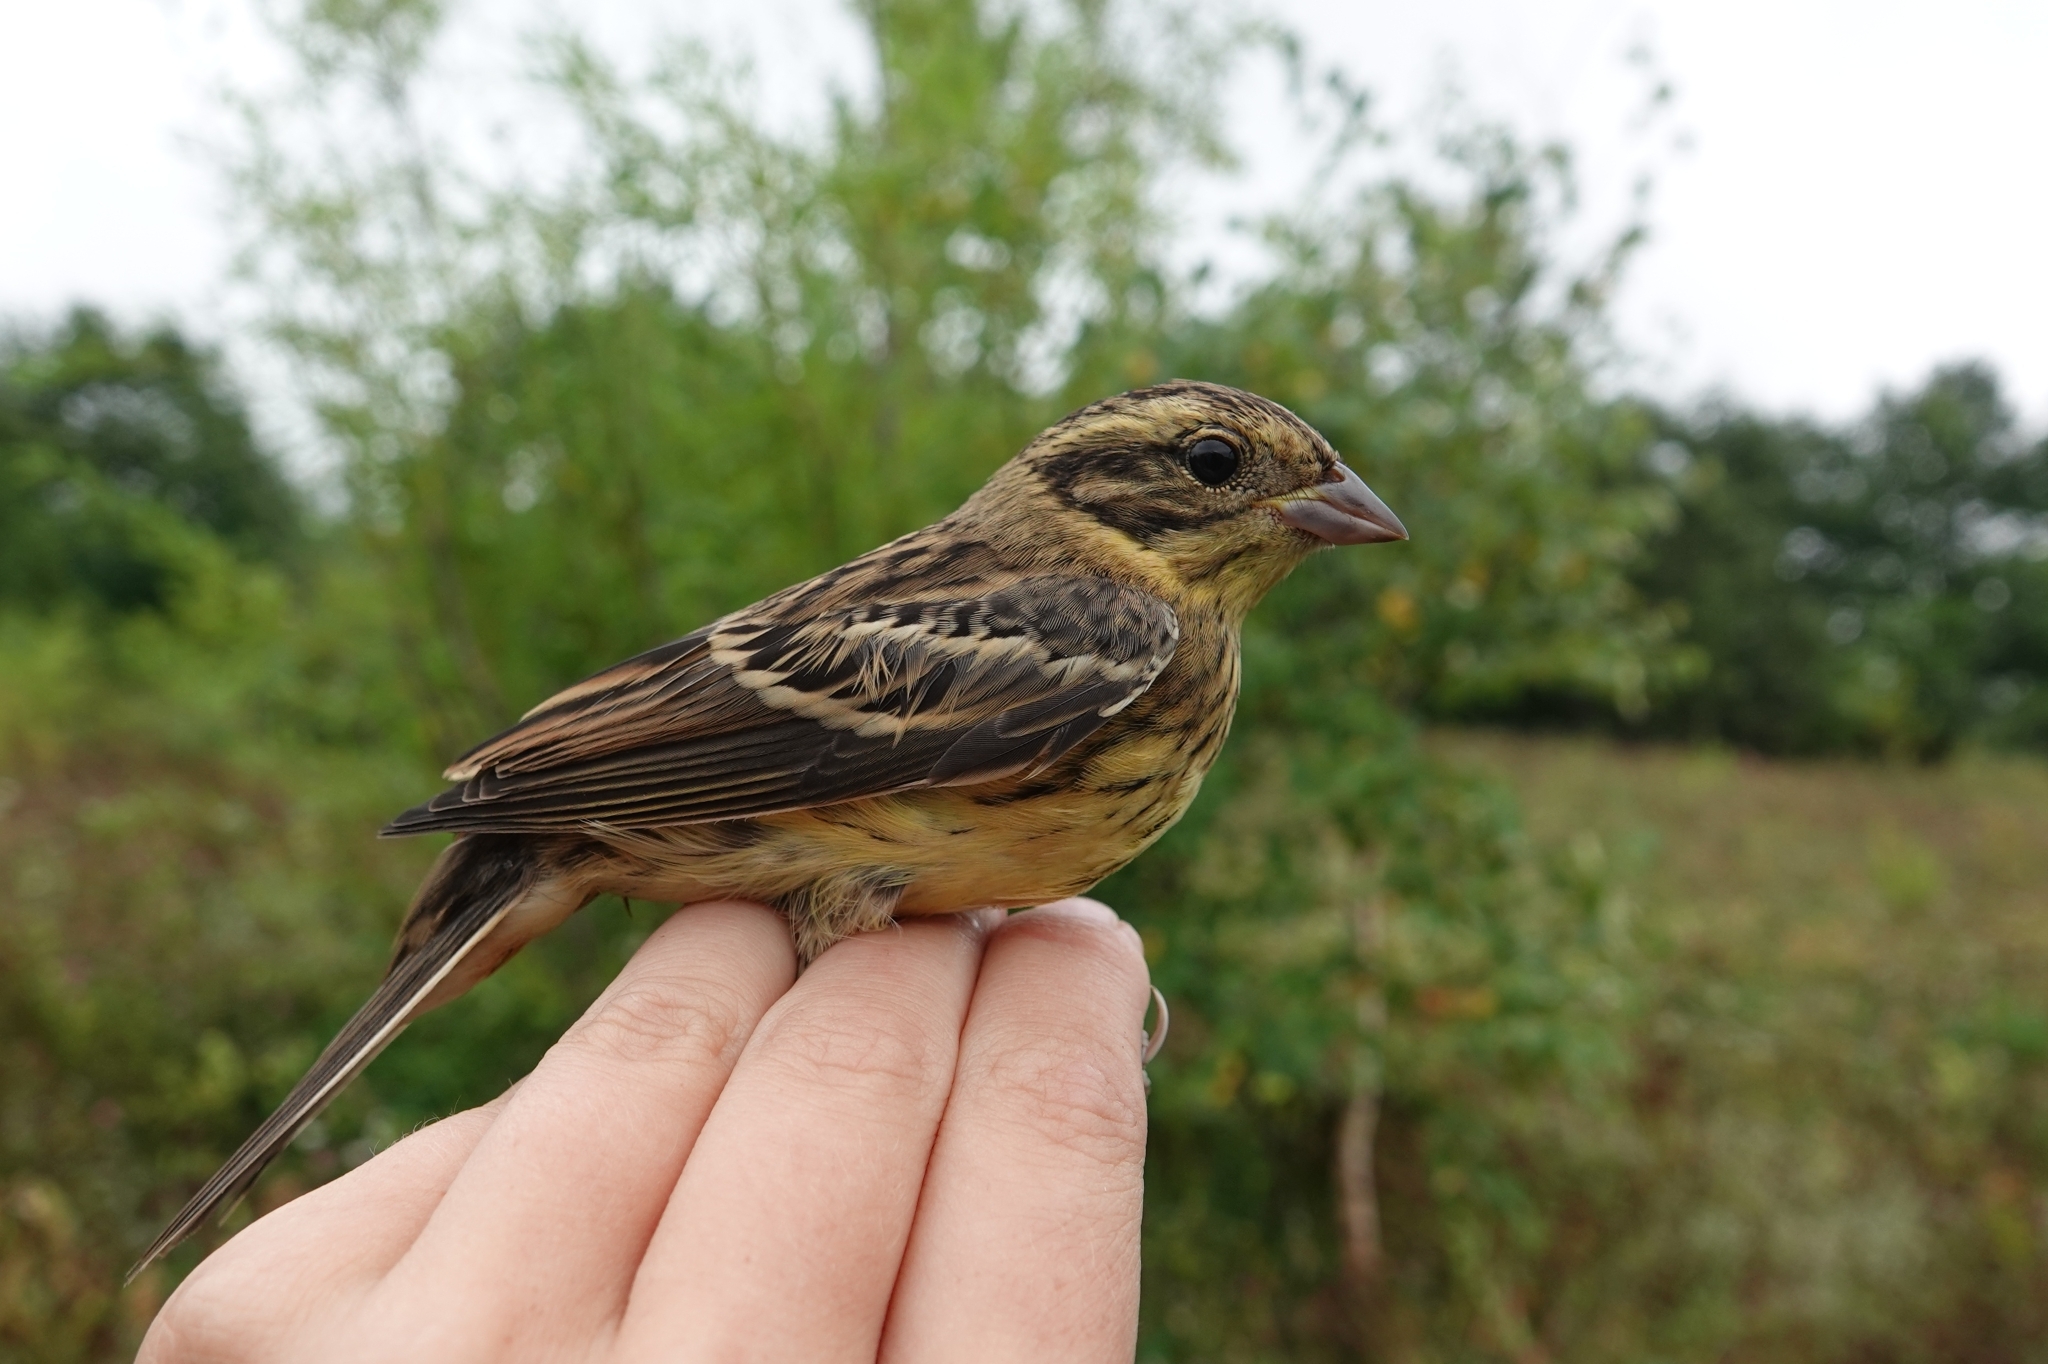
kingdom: Animalia
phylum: Chordata
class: Aves
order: Passeriformes
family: Emberizidae
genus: Emberiza
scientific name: Emberiza aureola
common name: Yellow-breasted bunting
